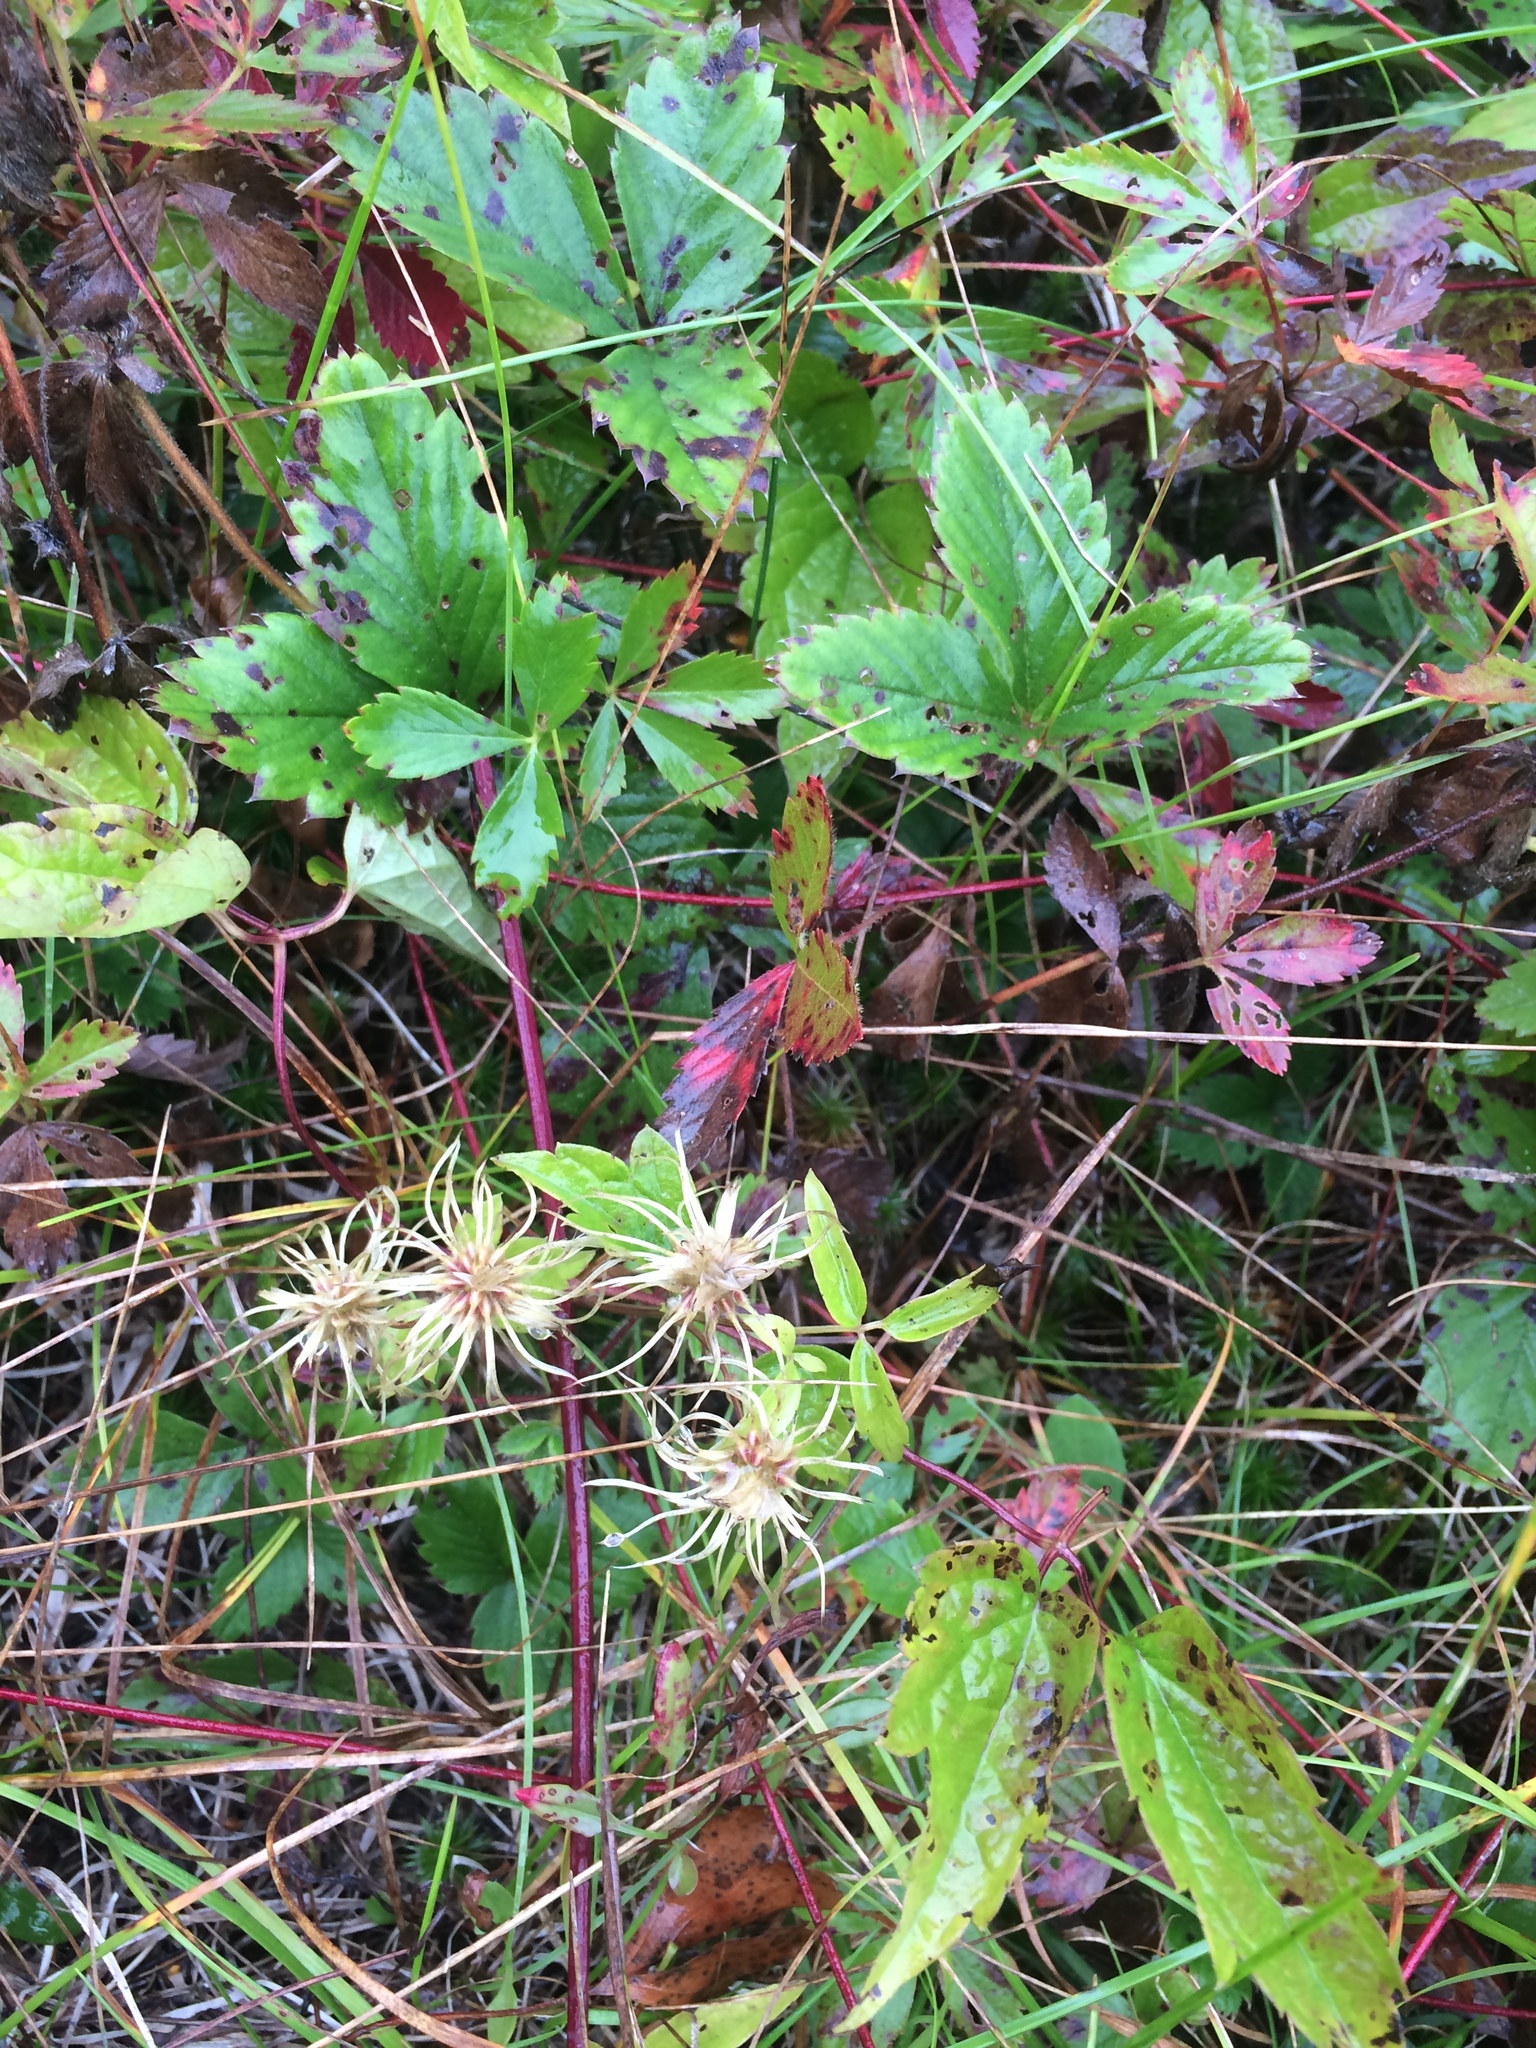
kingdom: Plantae
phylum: Tracheophyta
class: Magnoliopsida
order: Ranunculales
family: Ranunculaceae
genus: Clematis
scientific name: Clematis virginiana
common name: Virgin's-bower
